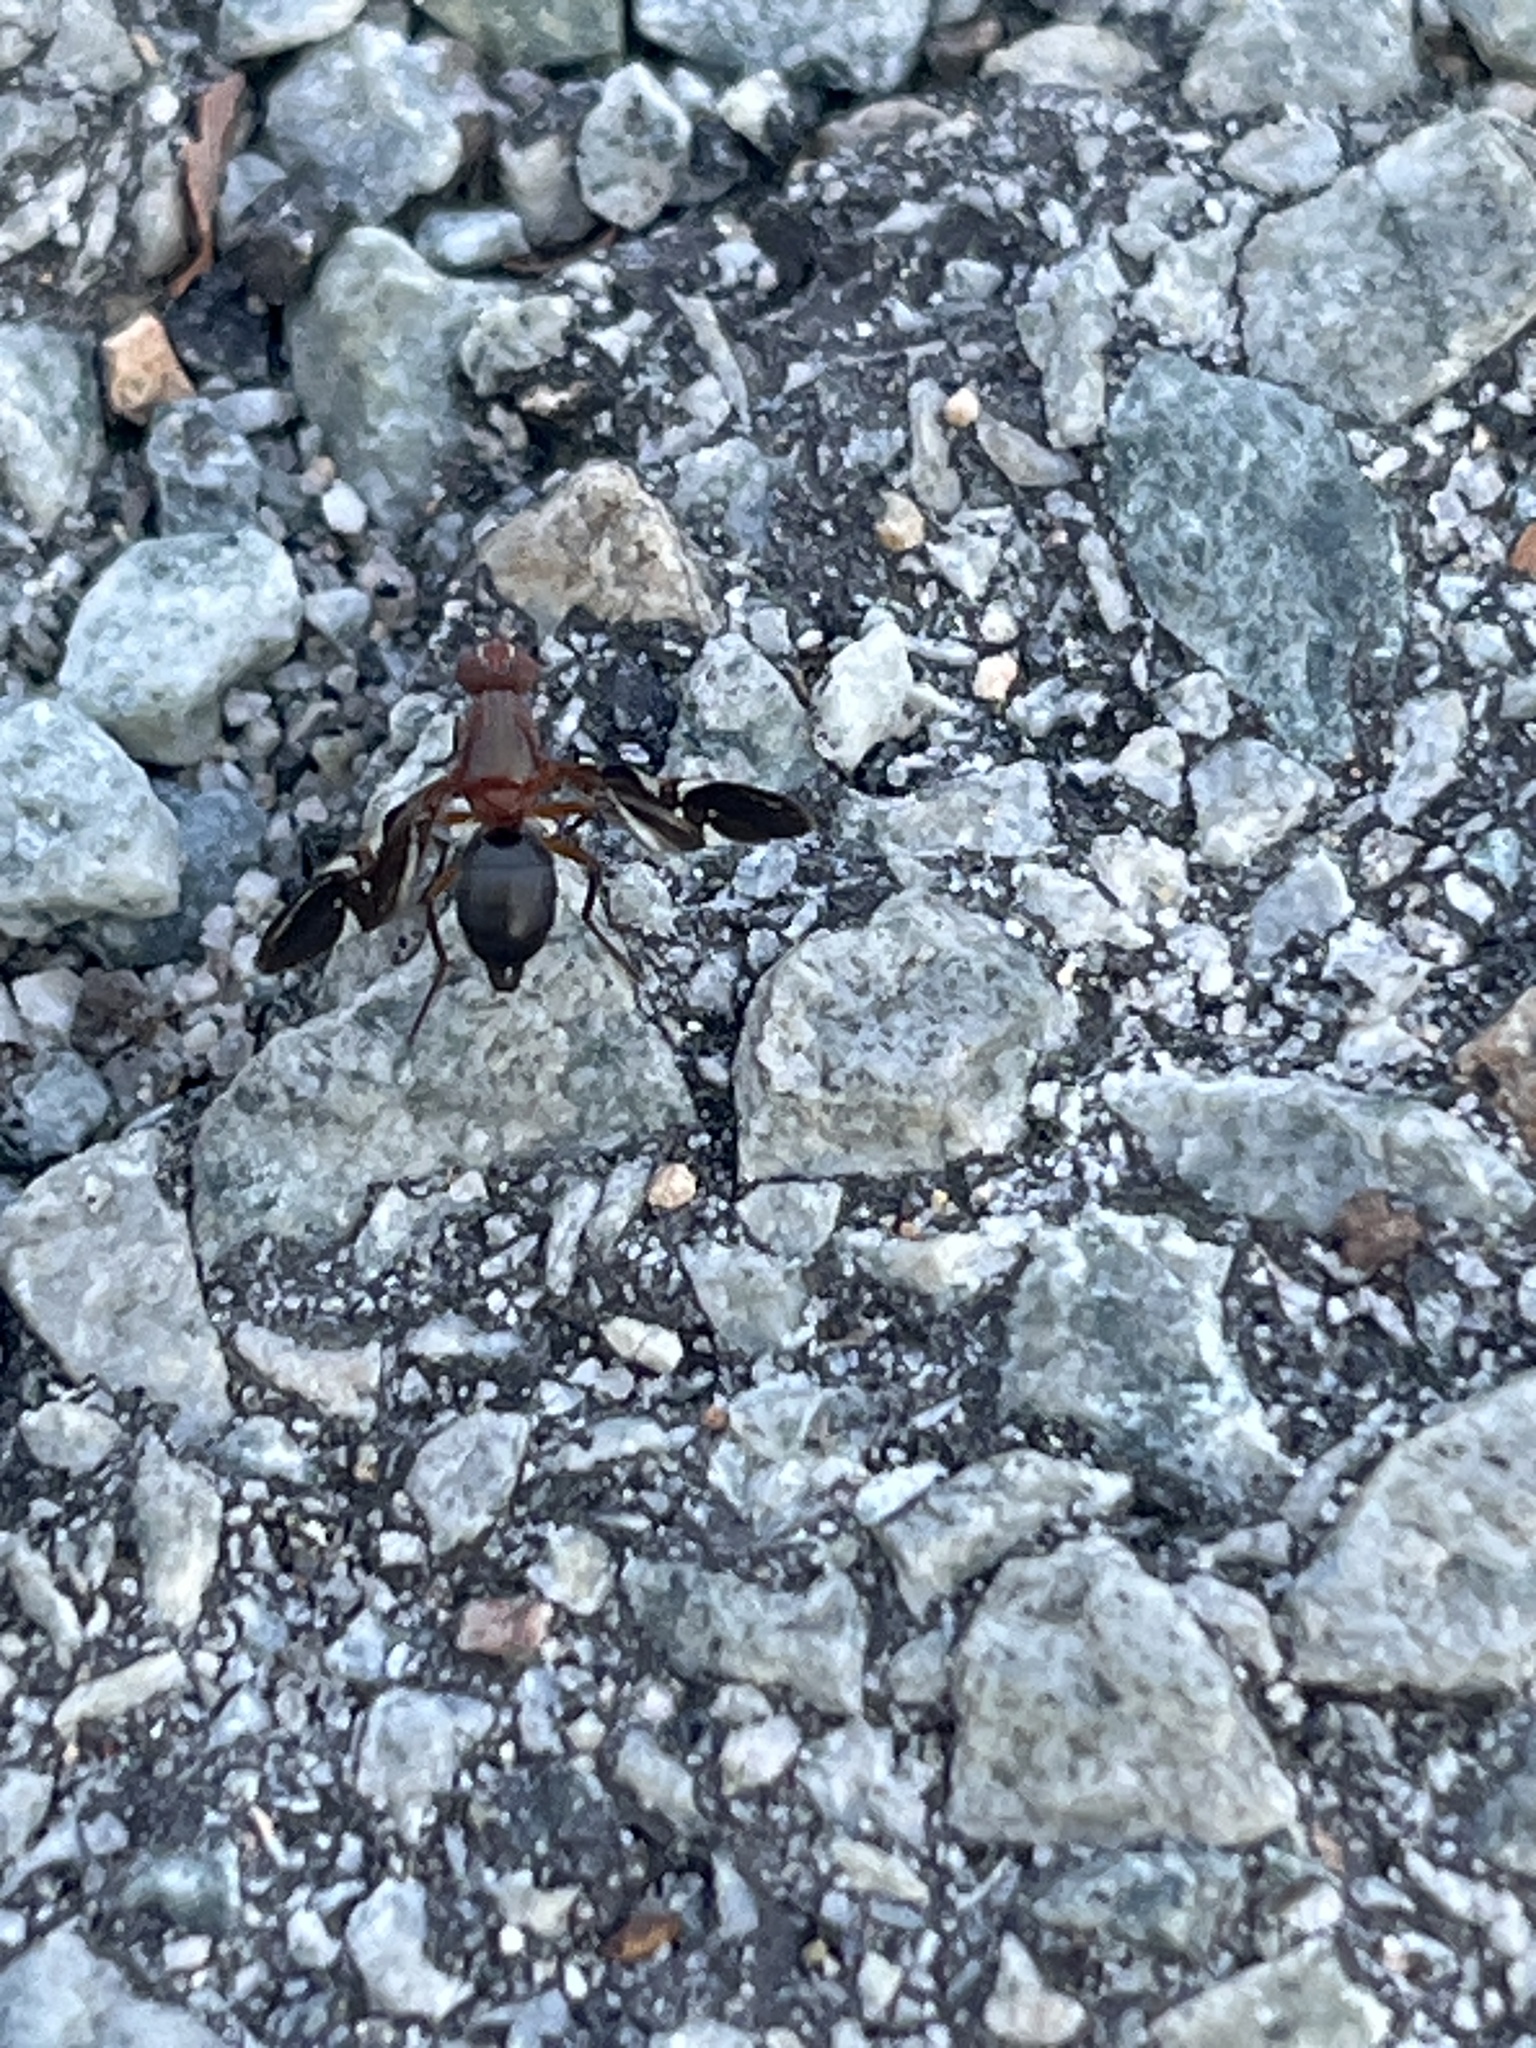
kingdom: Animalia
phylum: Arthropoda
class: Insecta
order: Diptera
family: Ulidiidae
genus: Delphinia
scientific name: Delphinia picta
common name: Common picture-winged fly
